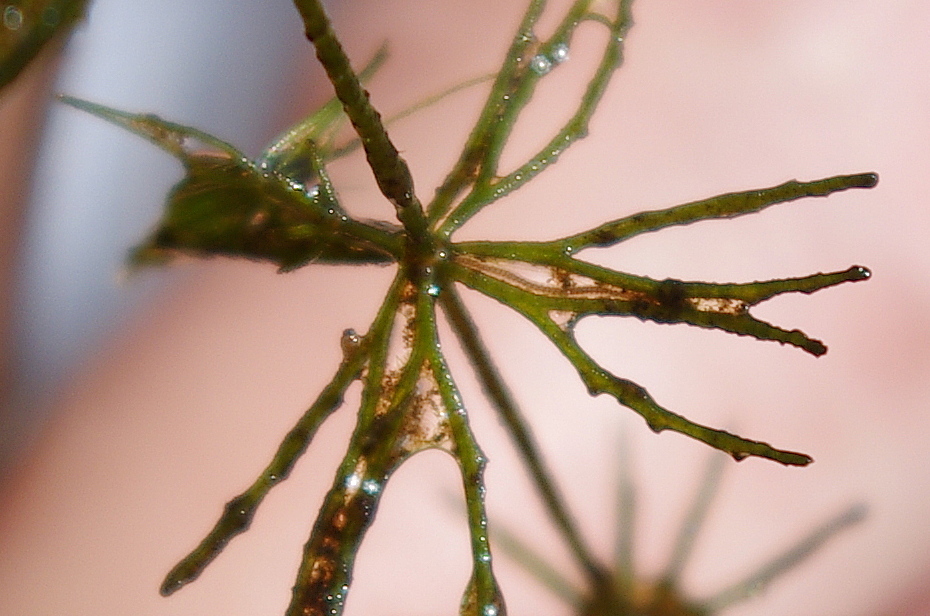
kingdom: Plantae
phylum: Tracheophyta
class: Magnoliopsida
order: Ceratophyllales
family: Ceratophyllaceae
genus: Ceratophyllum
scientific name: Ceratophyllum demersum
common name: Rigid hornwort
